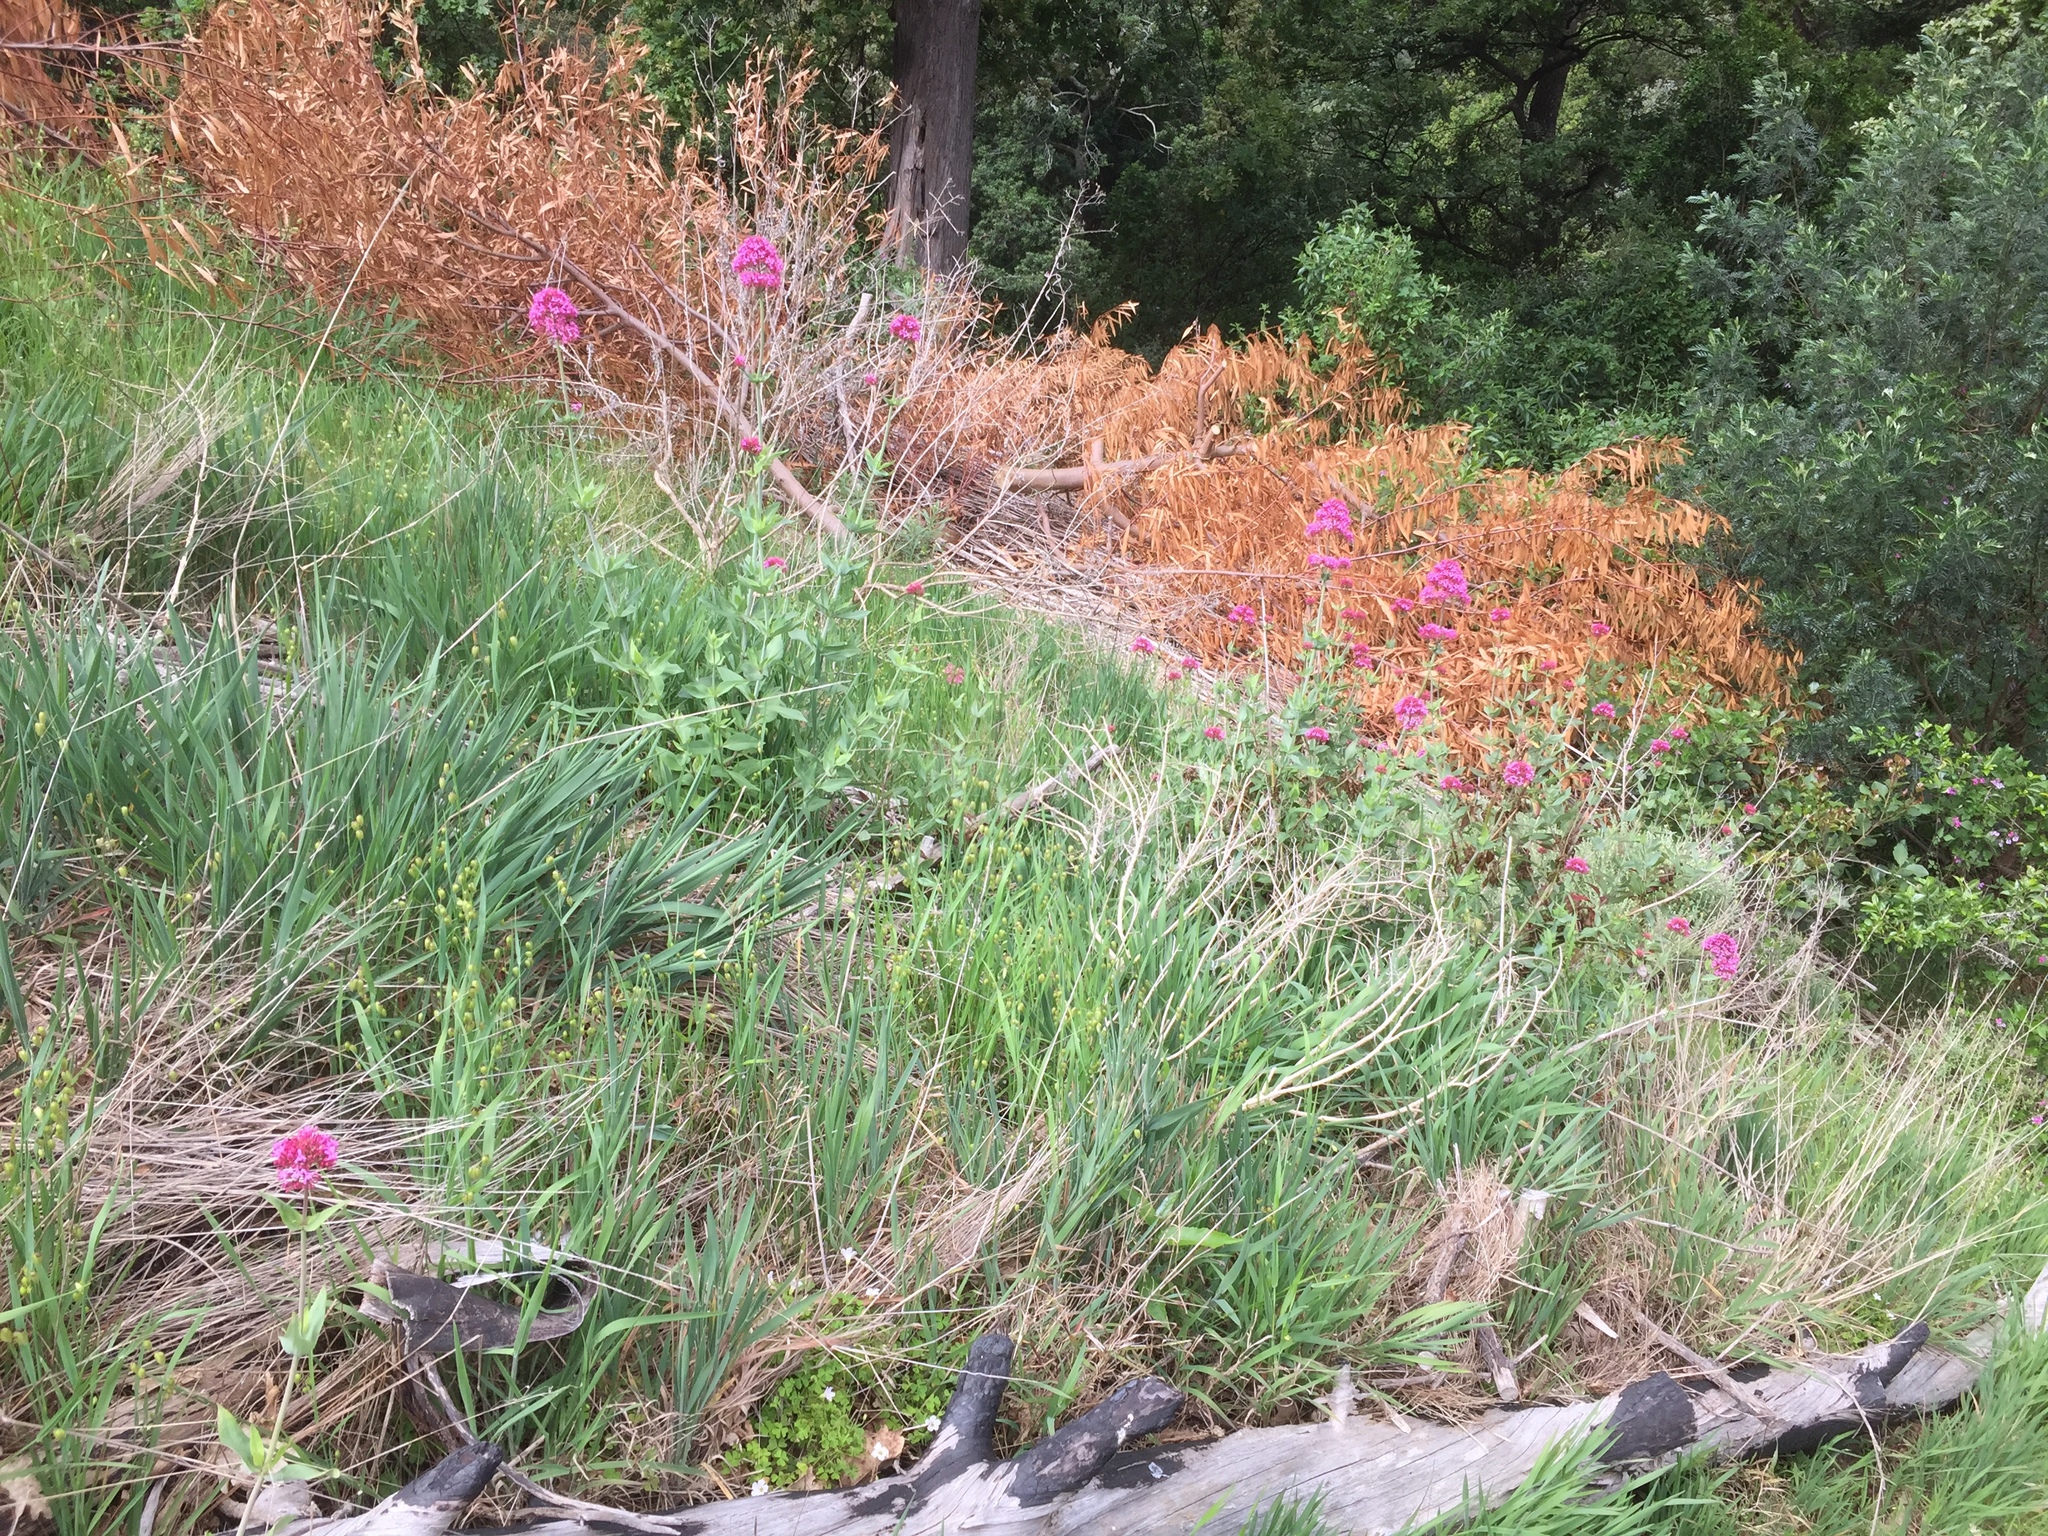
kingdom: Plantae
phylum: Tracheophyta
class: Magnoliopsida
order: Dipsacales
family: Caprifoliaceae
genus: Centranthus
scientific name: Centranthus ruber
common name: Red valerian
